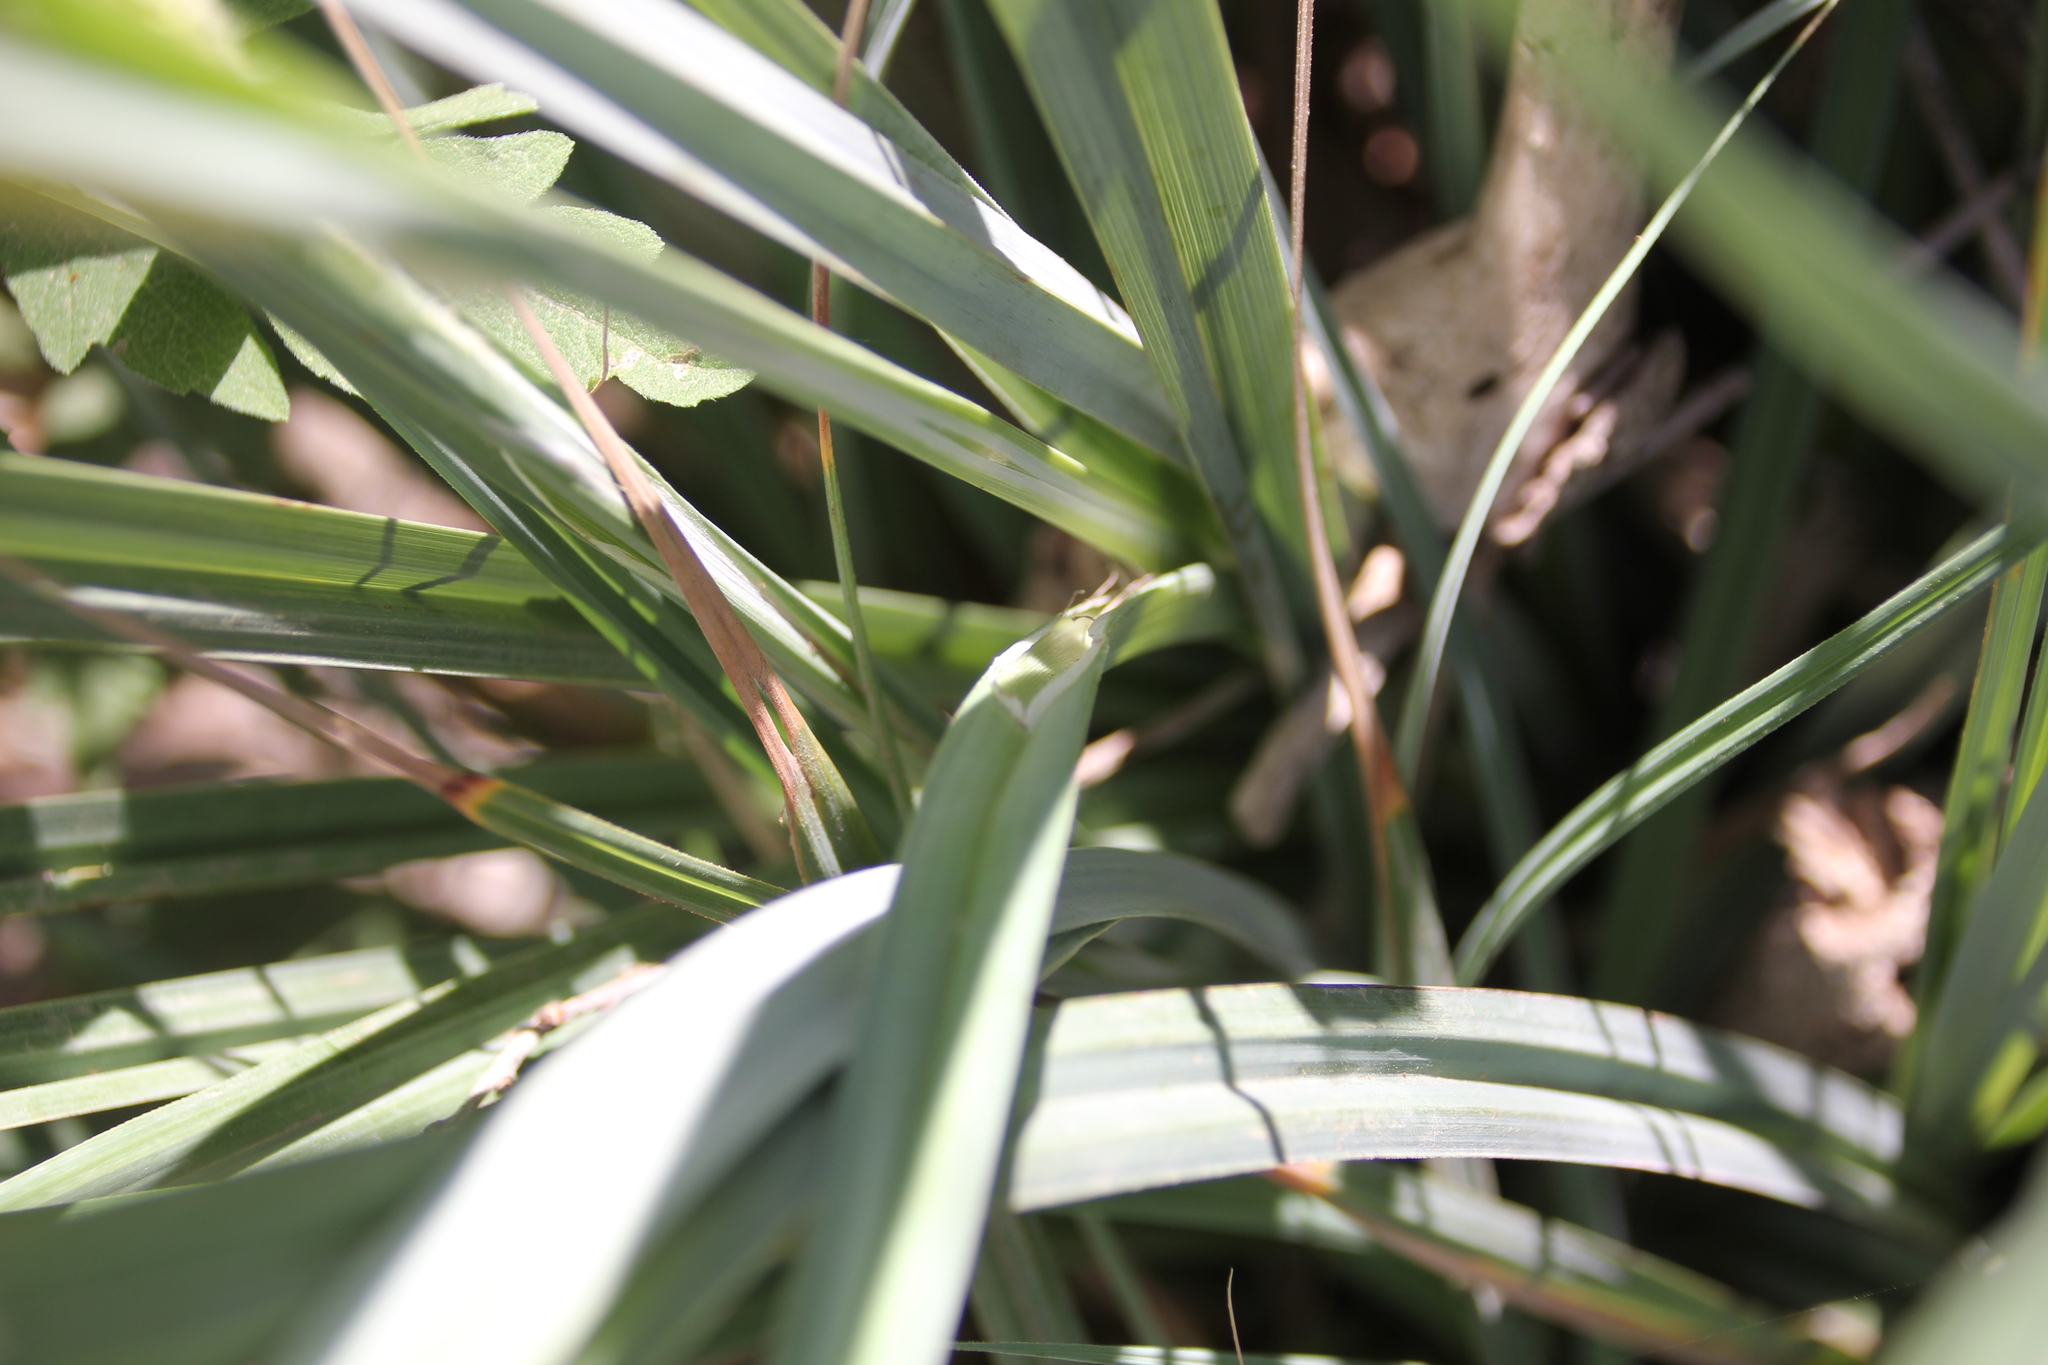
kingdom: Plantae
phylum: Tracheophyta
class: Liliopsida
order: Poales
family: Cyperaceae
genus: Carex
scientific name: Carex barbarae
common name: Santa barbara sedge
